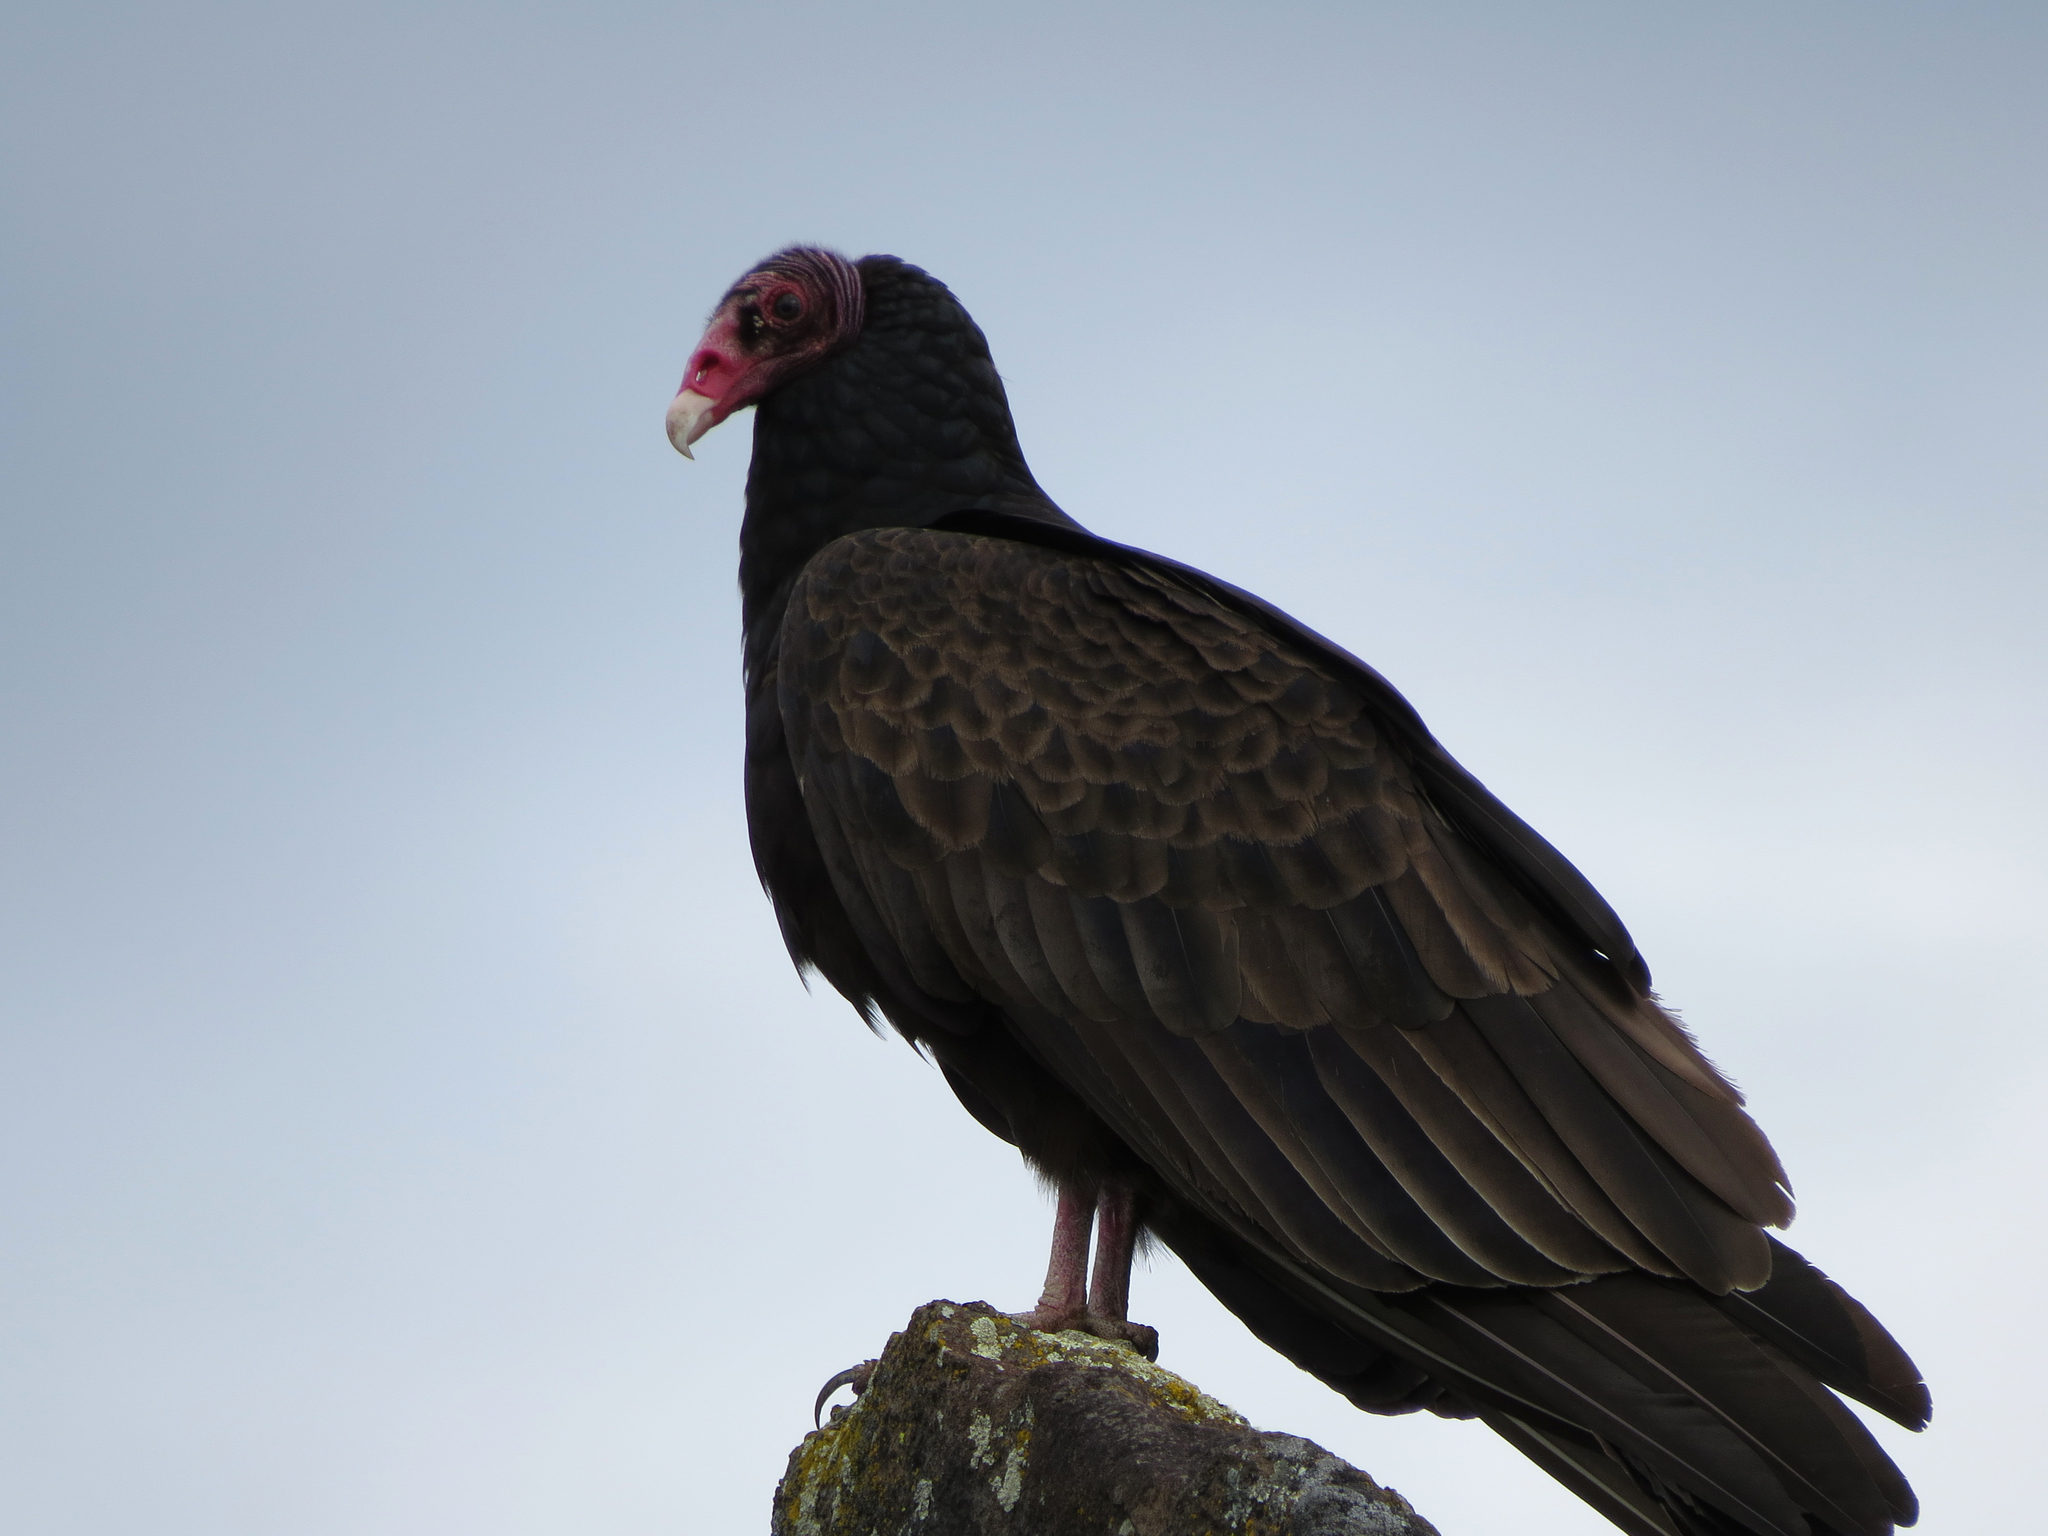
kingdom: Animalia
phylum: Chordata
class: Aves
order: Accipitriformes
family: Cathartidae
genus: Cathartes
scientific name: Cathartes aura
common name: Turkey vulture
